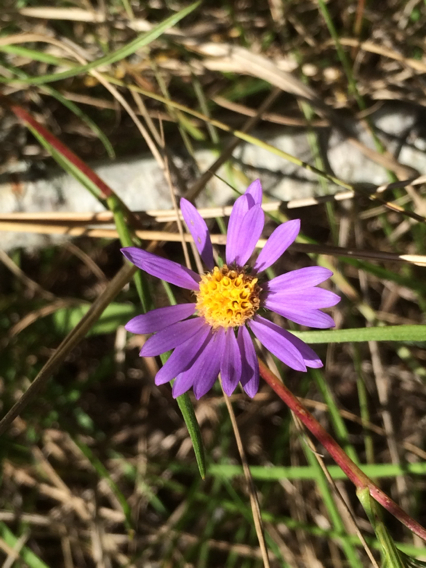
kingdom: Plantae
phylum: Tracheophyta
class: Magnoliopsida
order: Asterales
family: Asteraceae
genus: Eurybia
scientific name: Eurybia hemispherica
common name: Showy aster
